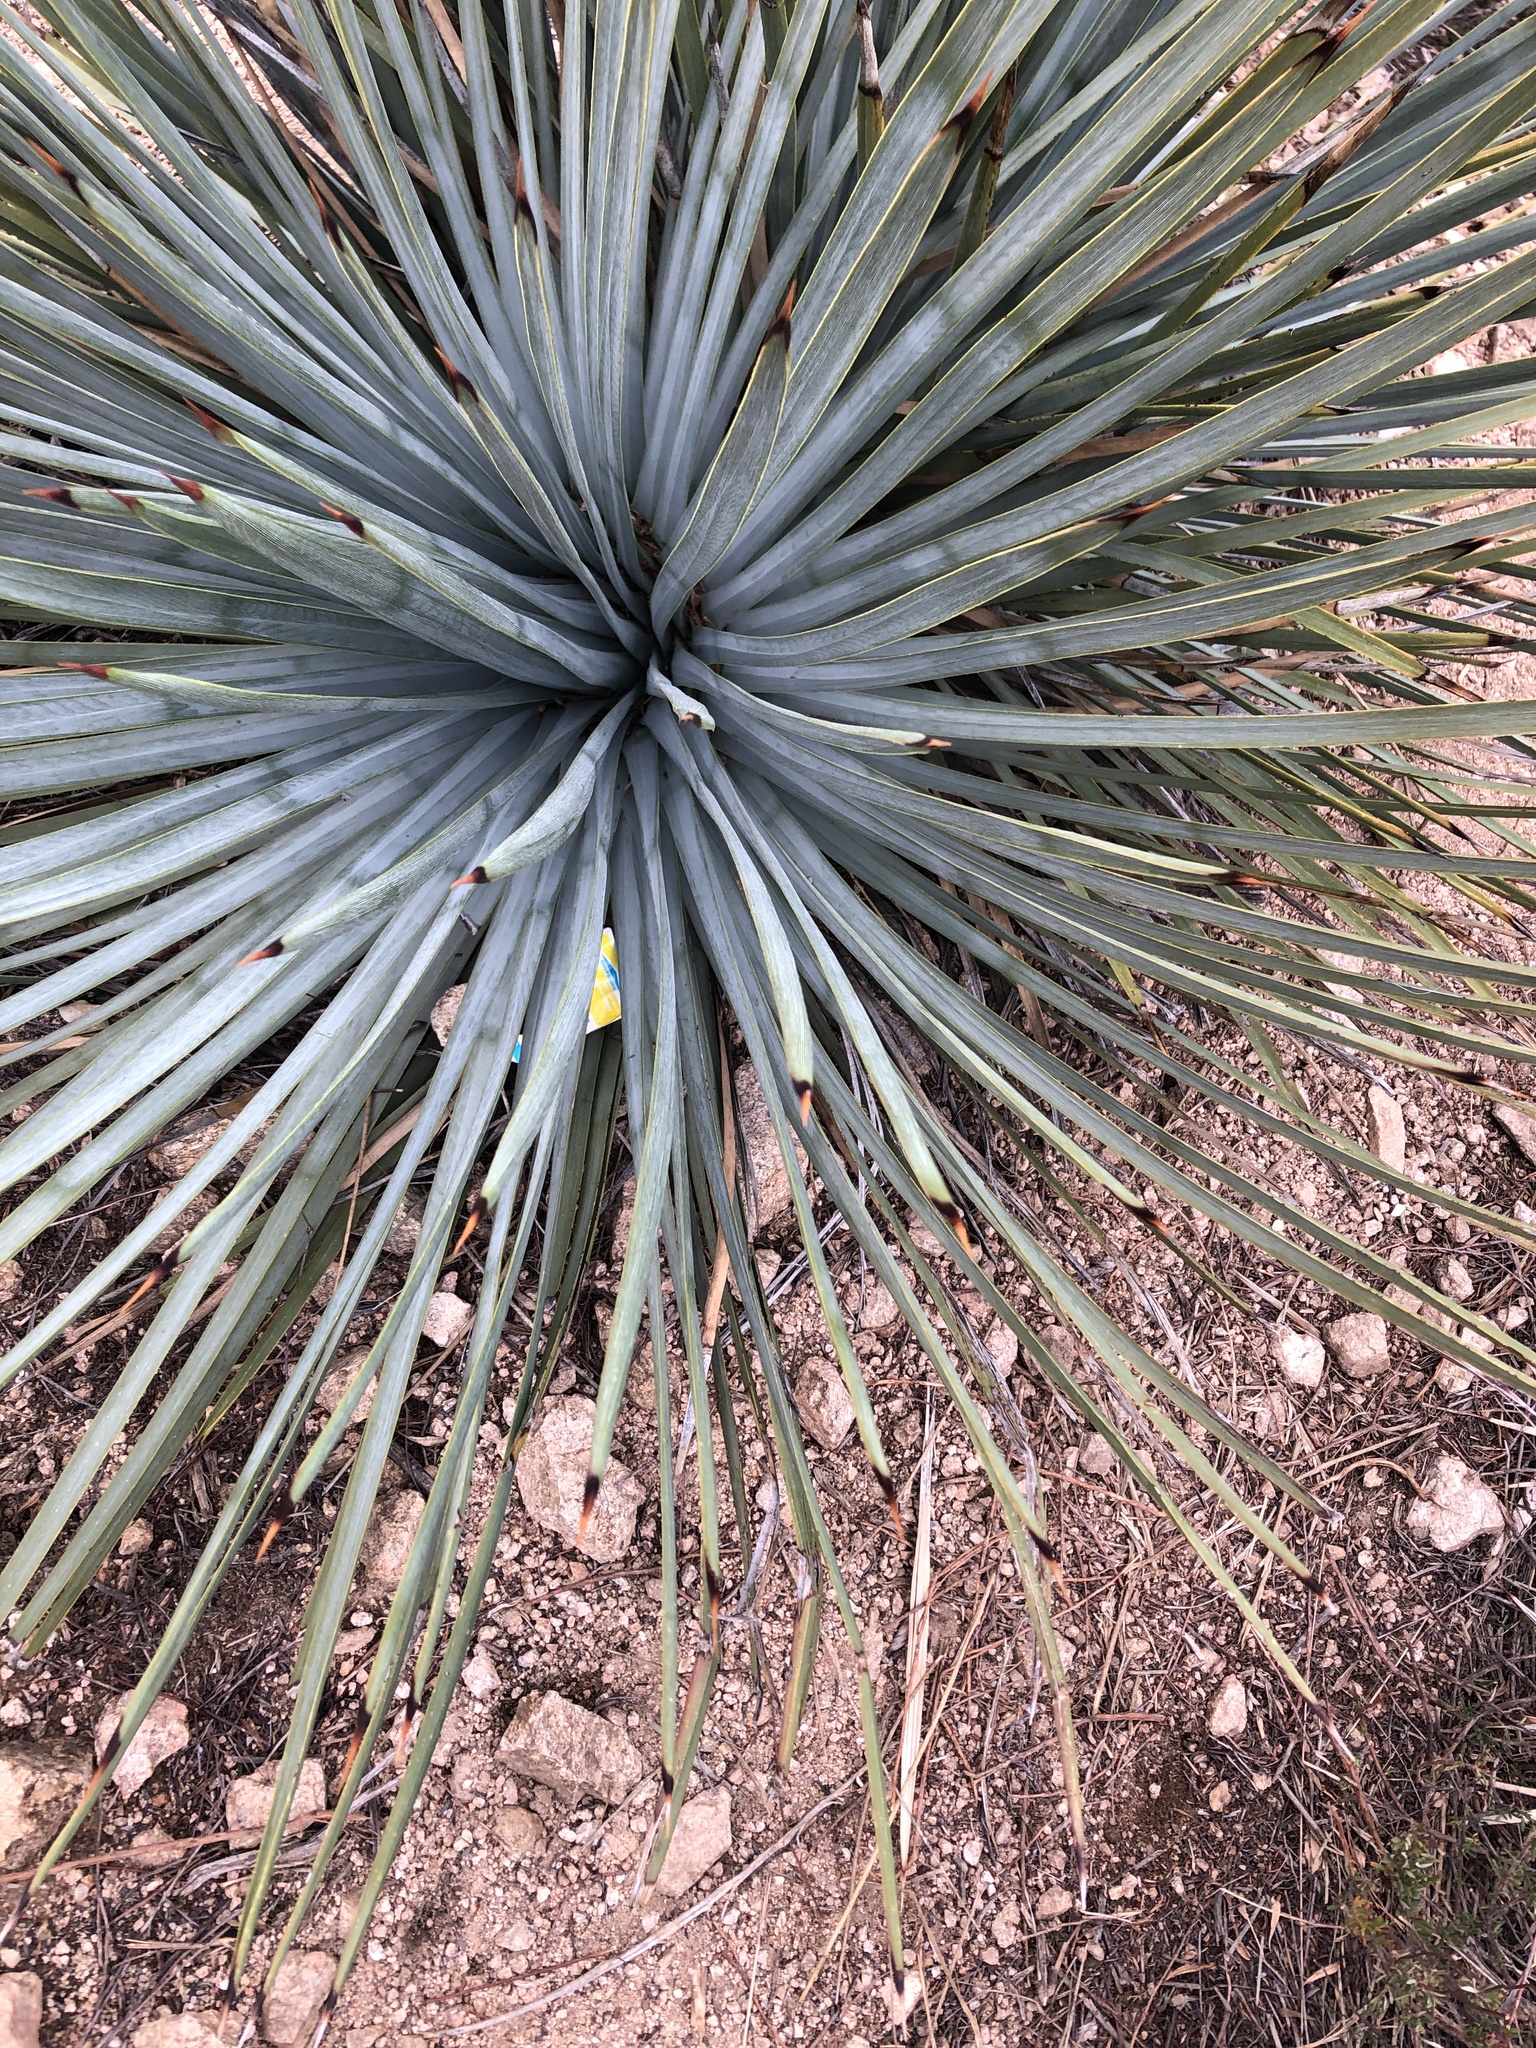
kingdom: Plantae
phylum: Tracheophyta
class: Liliopsida
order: Asparagales
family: Asparagaceae
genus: Hesperoyucca
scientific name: Hesperoyucca whipplei
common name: Our lord's-candle
